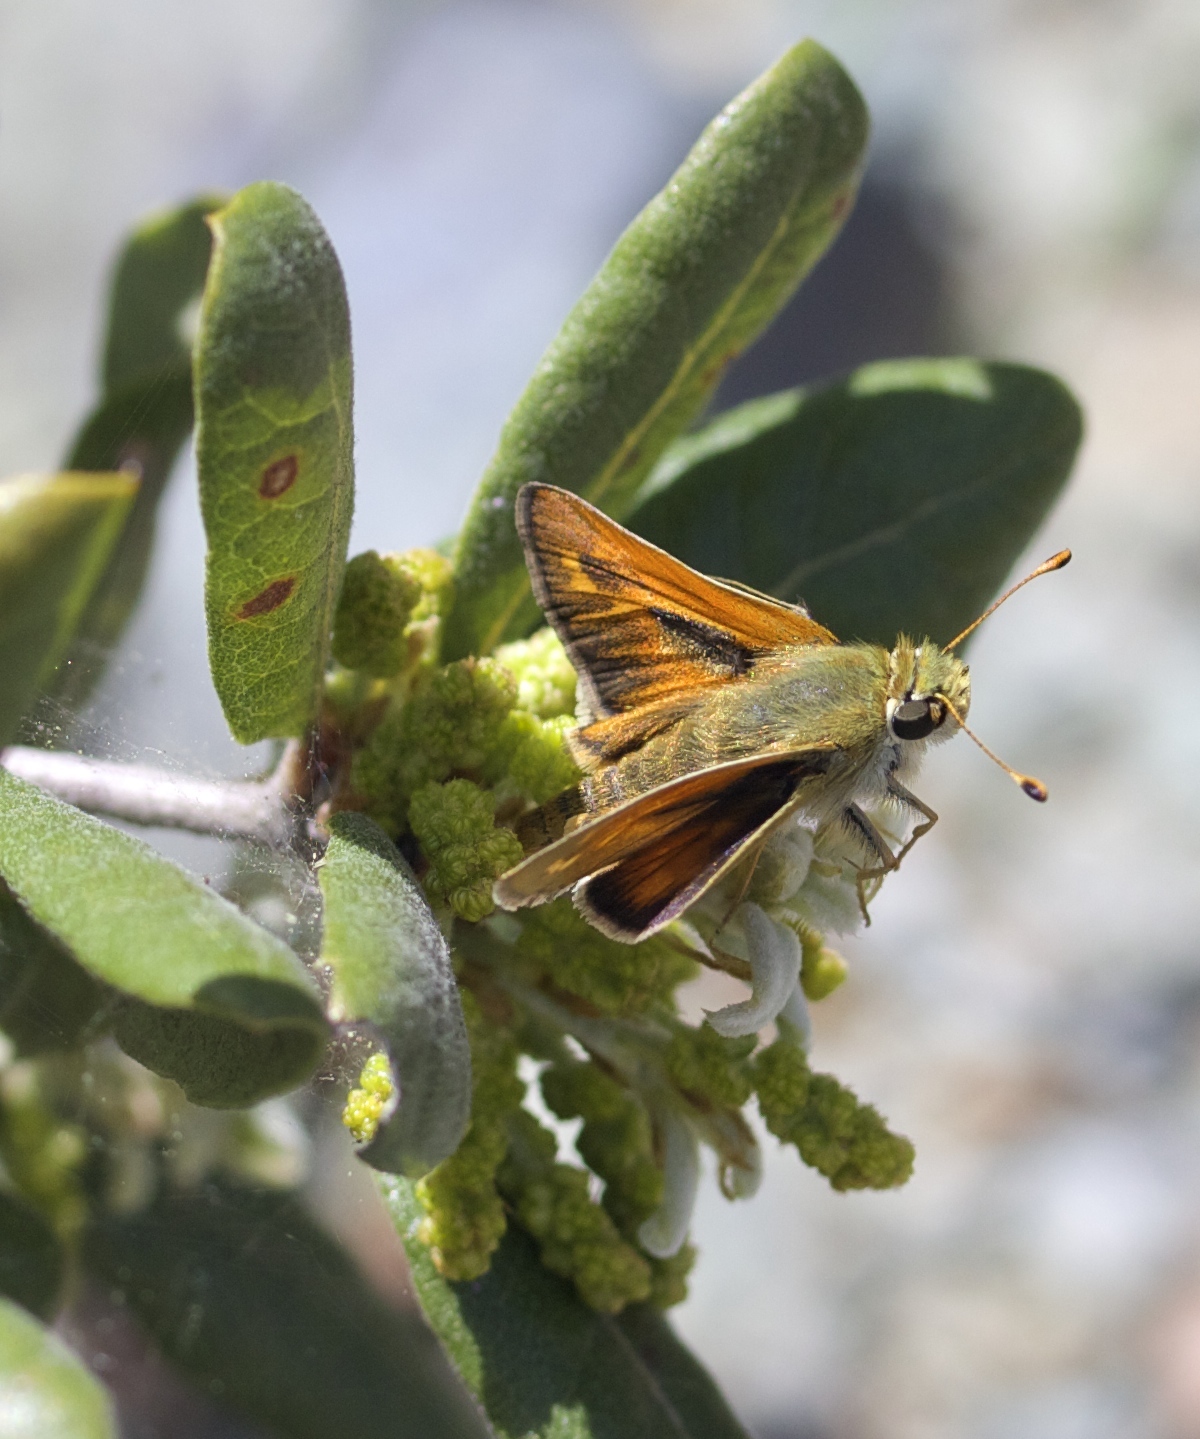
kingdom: Animalia
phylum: Arthropoda
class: Insecta
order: Lepidoptera
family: Hesperiidae
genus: Hesperia
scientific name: Hesperia columbia
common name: Columbian skipper
